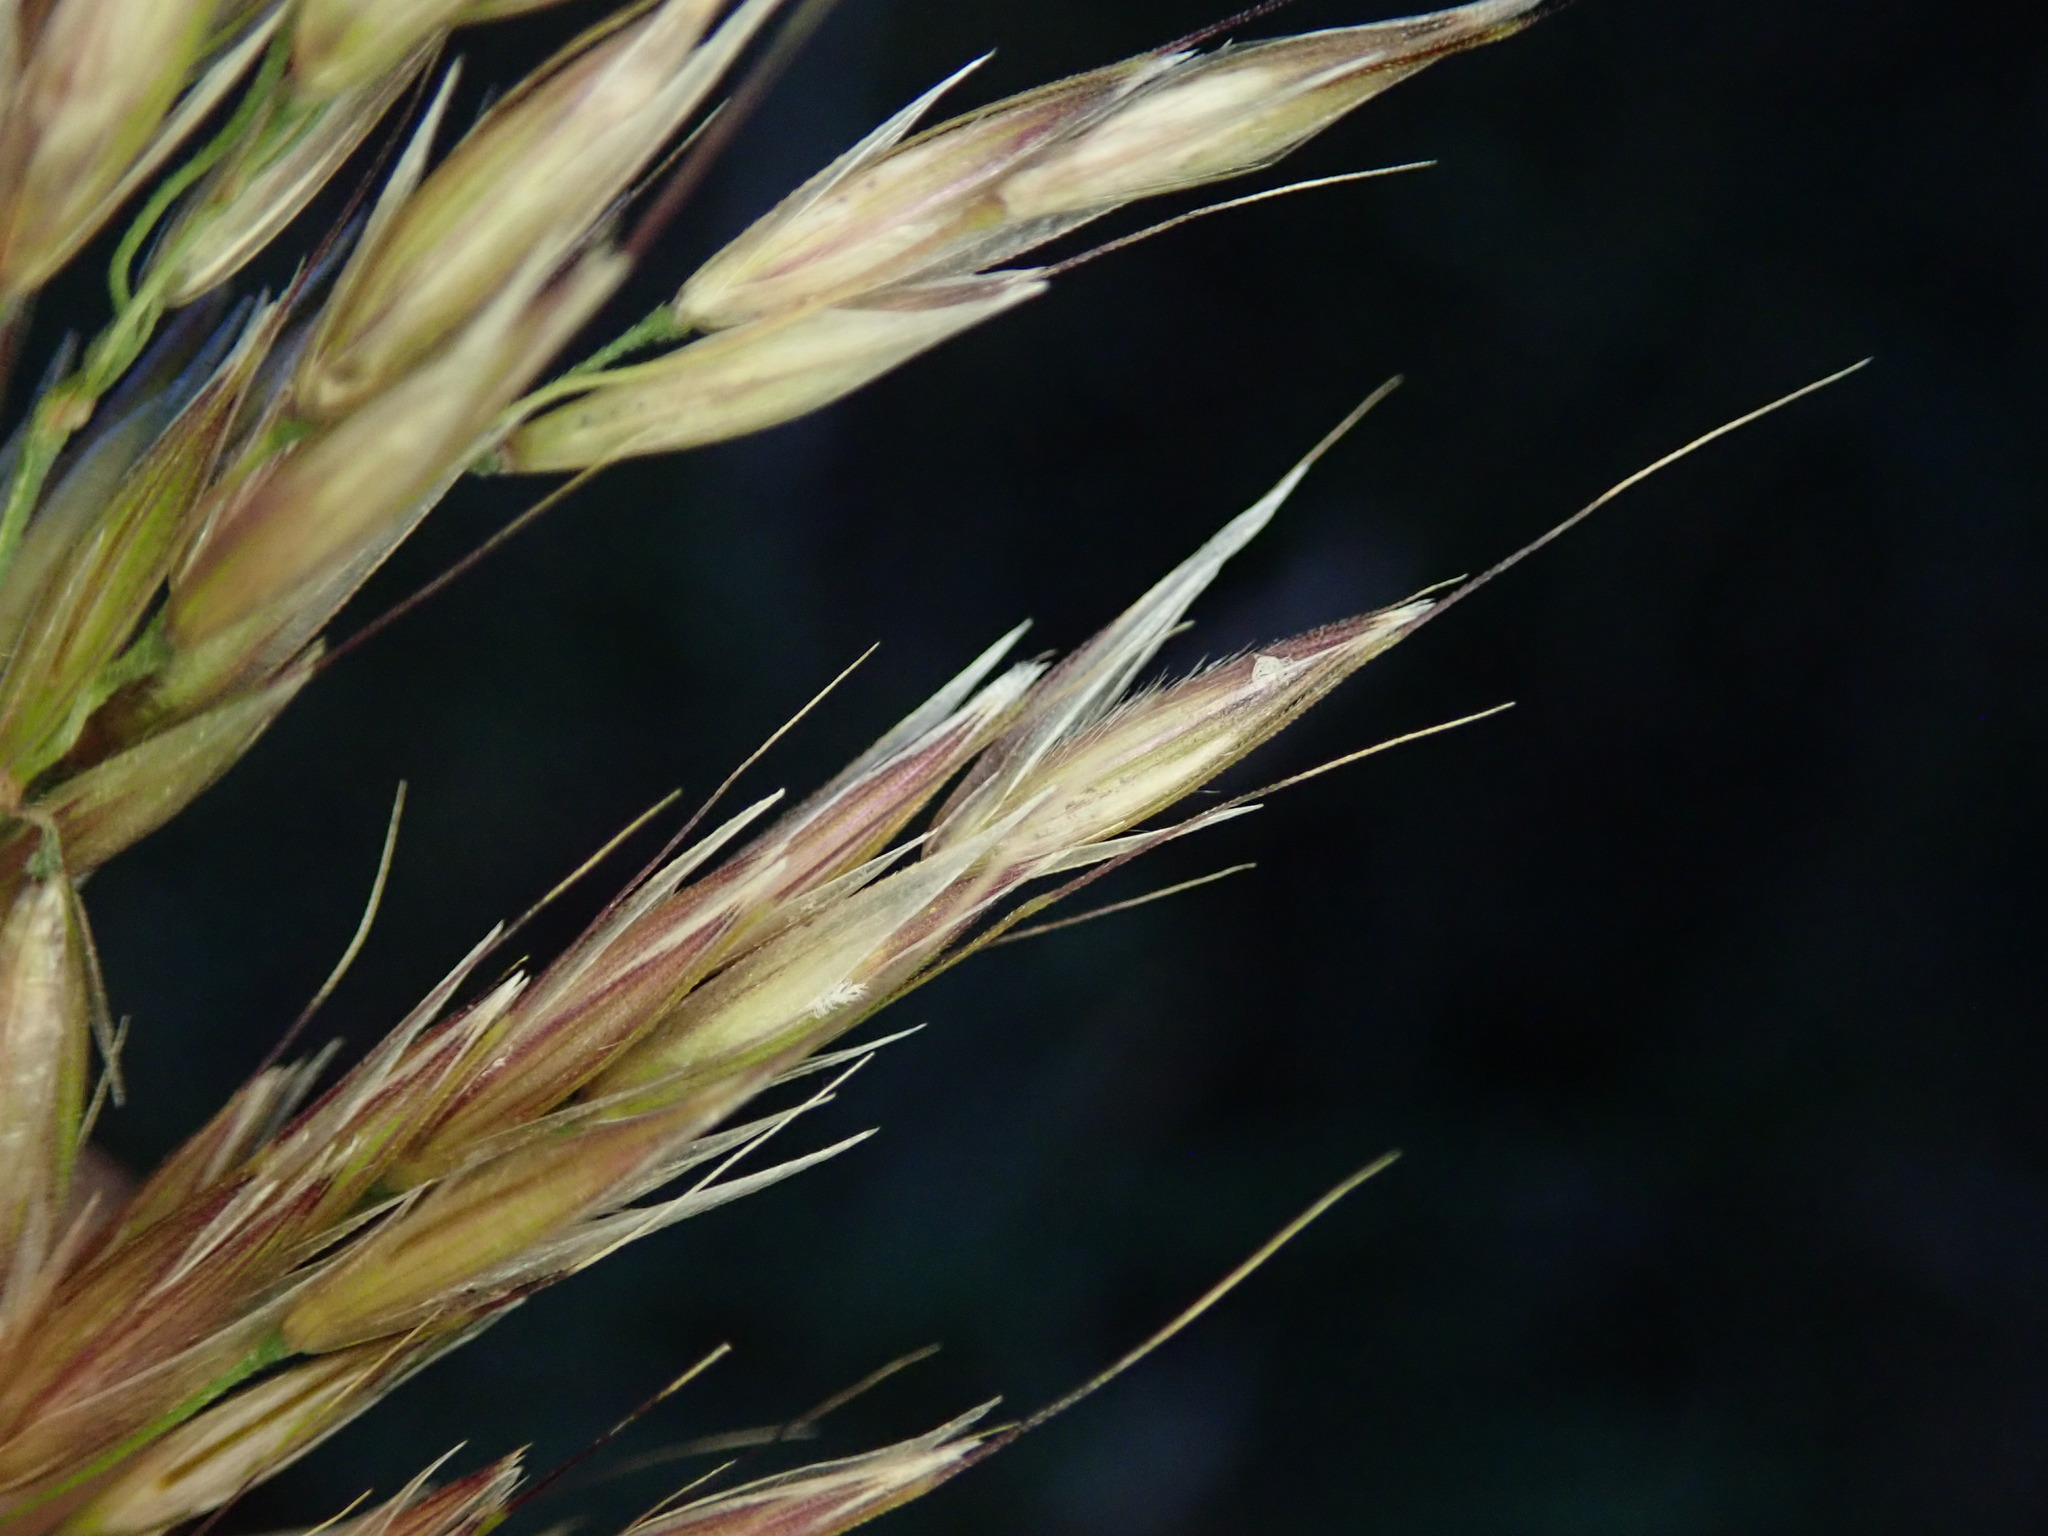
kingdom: Plantae
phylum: Tracheophyta
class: Liliopsida
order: Poales
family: Poaceae
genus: Arrhenatherum
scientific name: Arrhenatherum elatius
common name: Tall oatgrass
